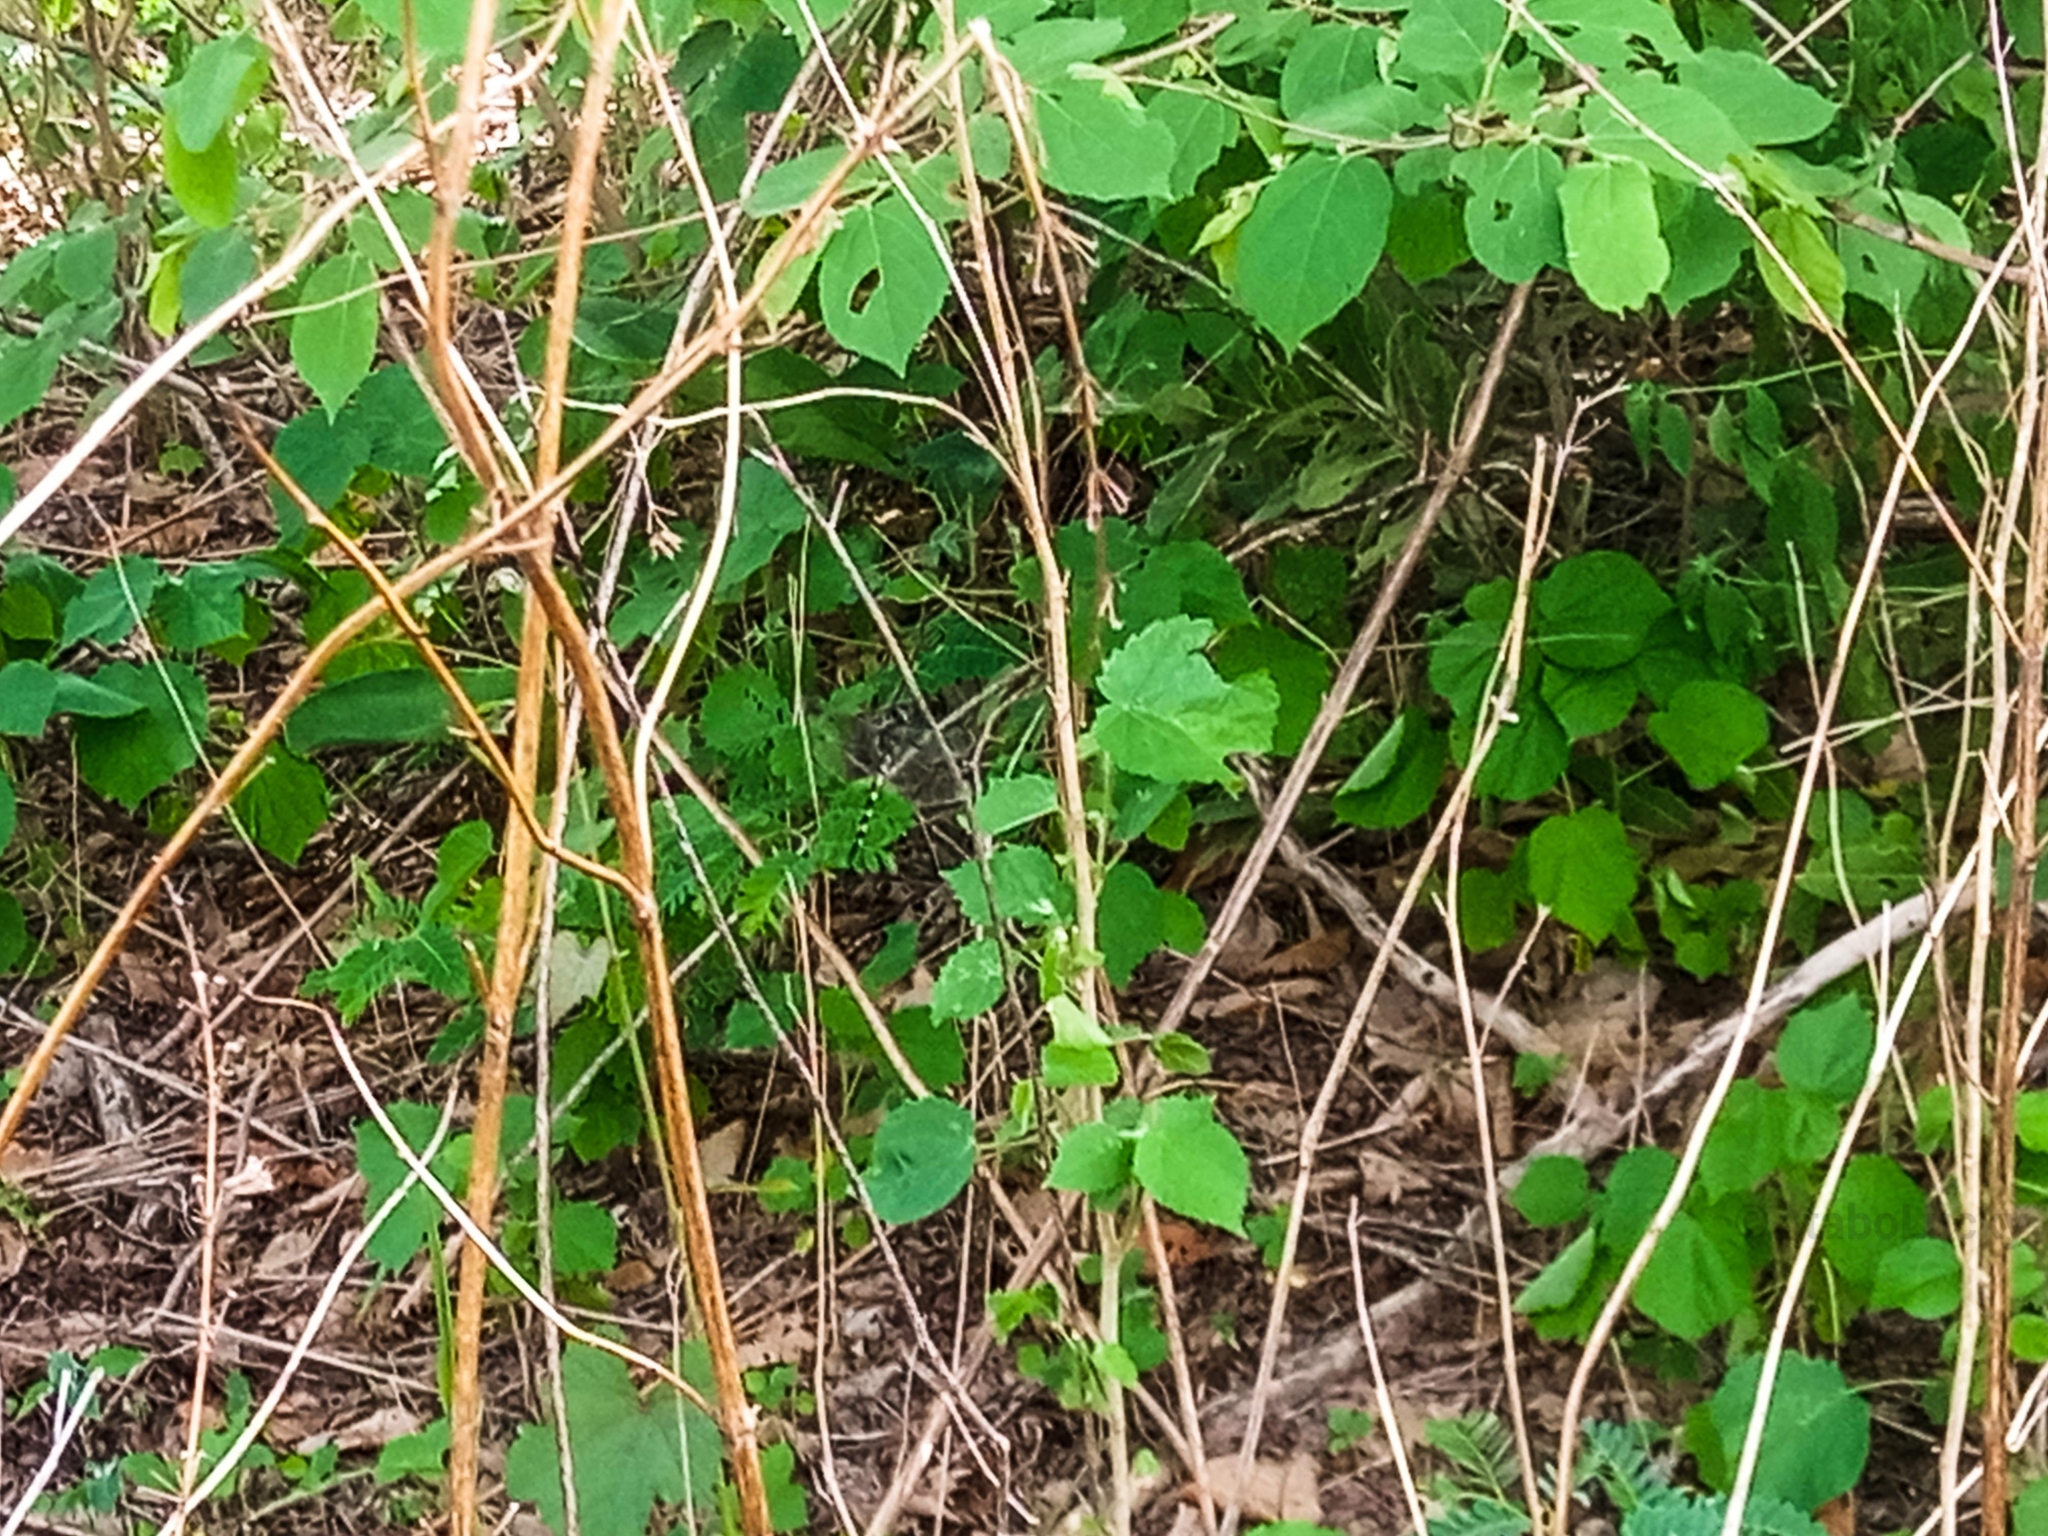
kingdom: Animalia
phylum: Arthropoda
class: Insecta
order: Odonata
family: Libellulidae
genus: Zygonyx
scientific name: Zygonyx torridus
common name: Ringed cascader
